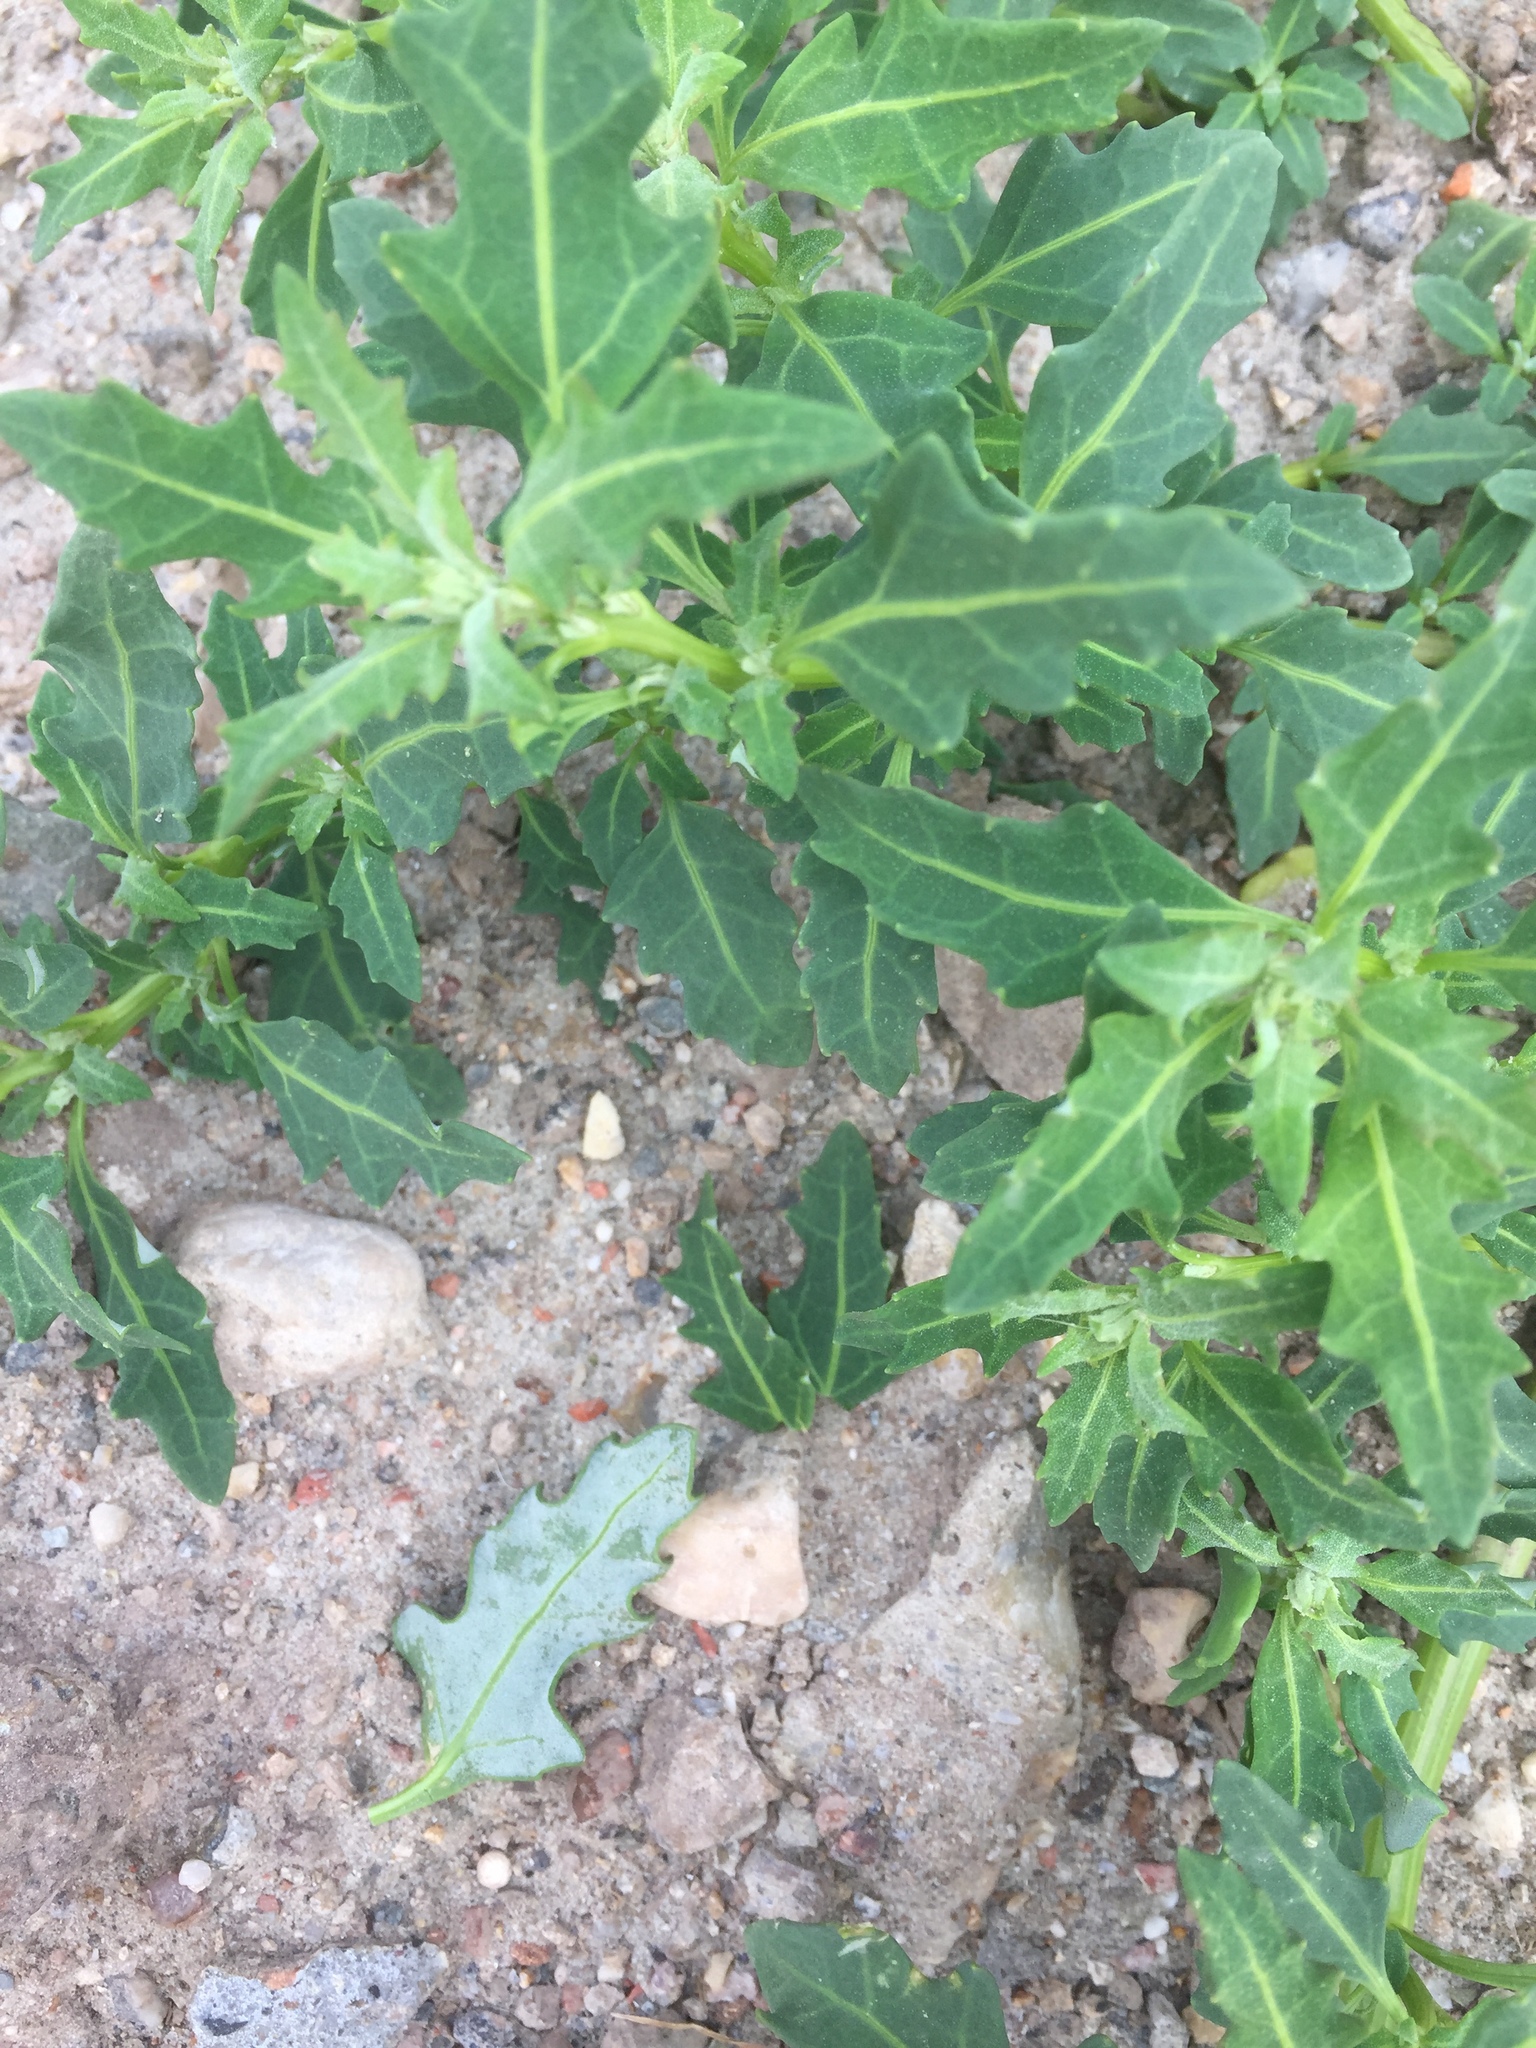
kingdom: Plantae
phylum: Tracheophyta
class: Magnoliopsida
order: Caryophyllales
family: Amaranthaceae
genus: Oxybasis
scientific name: Oxybasis glauca
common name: Glaucous goosefoot
